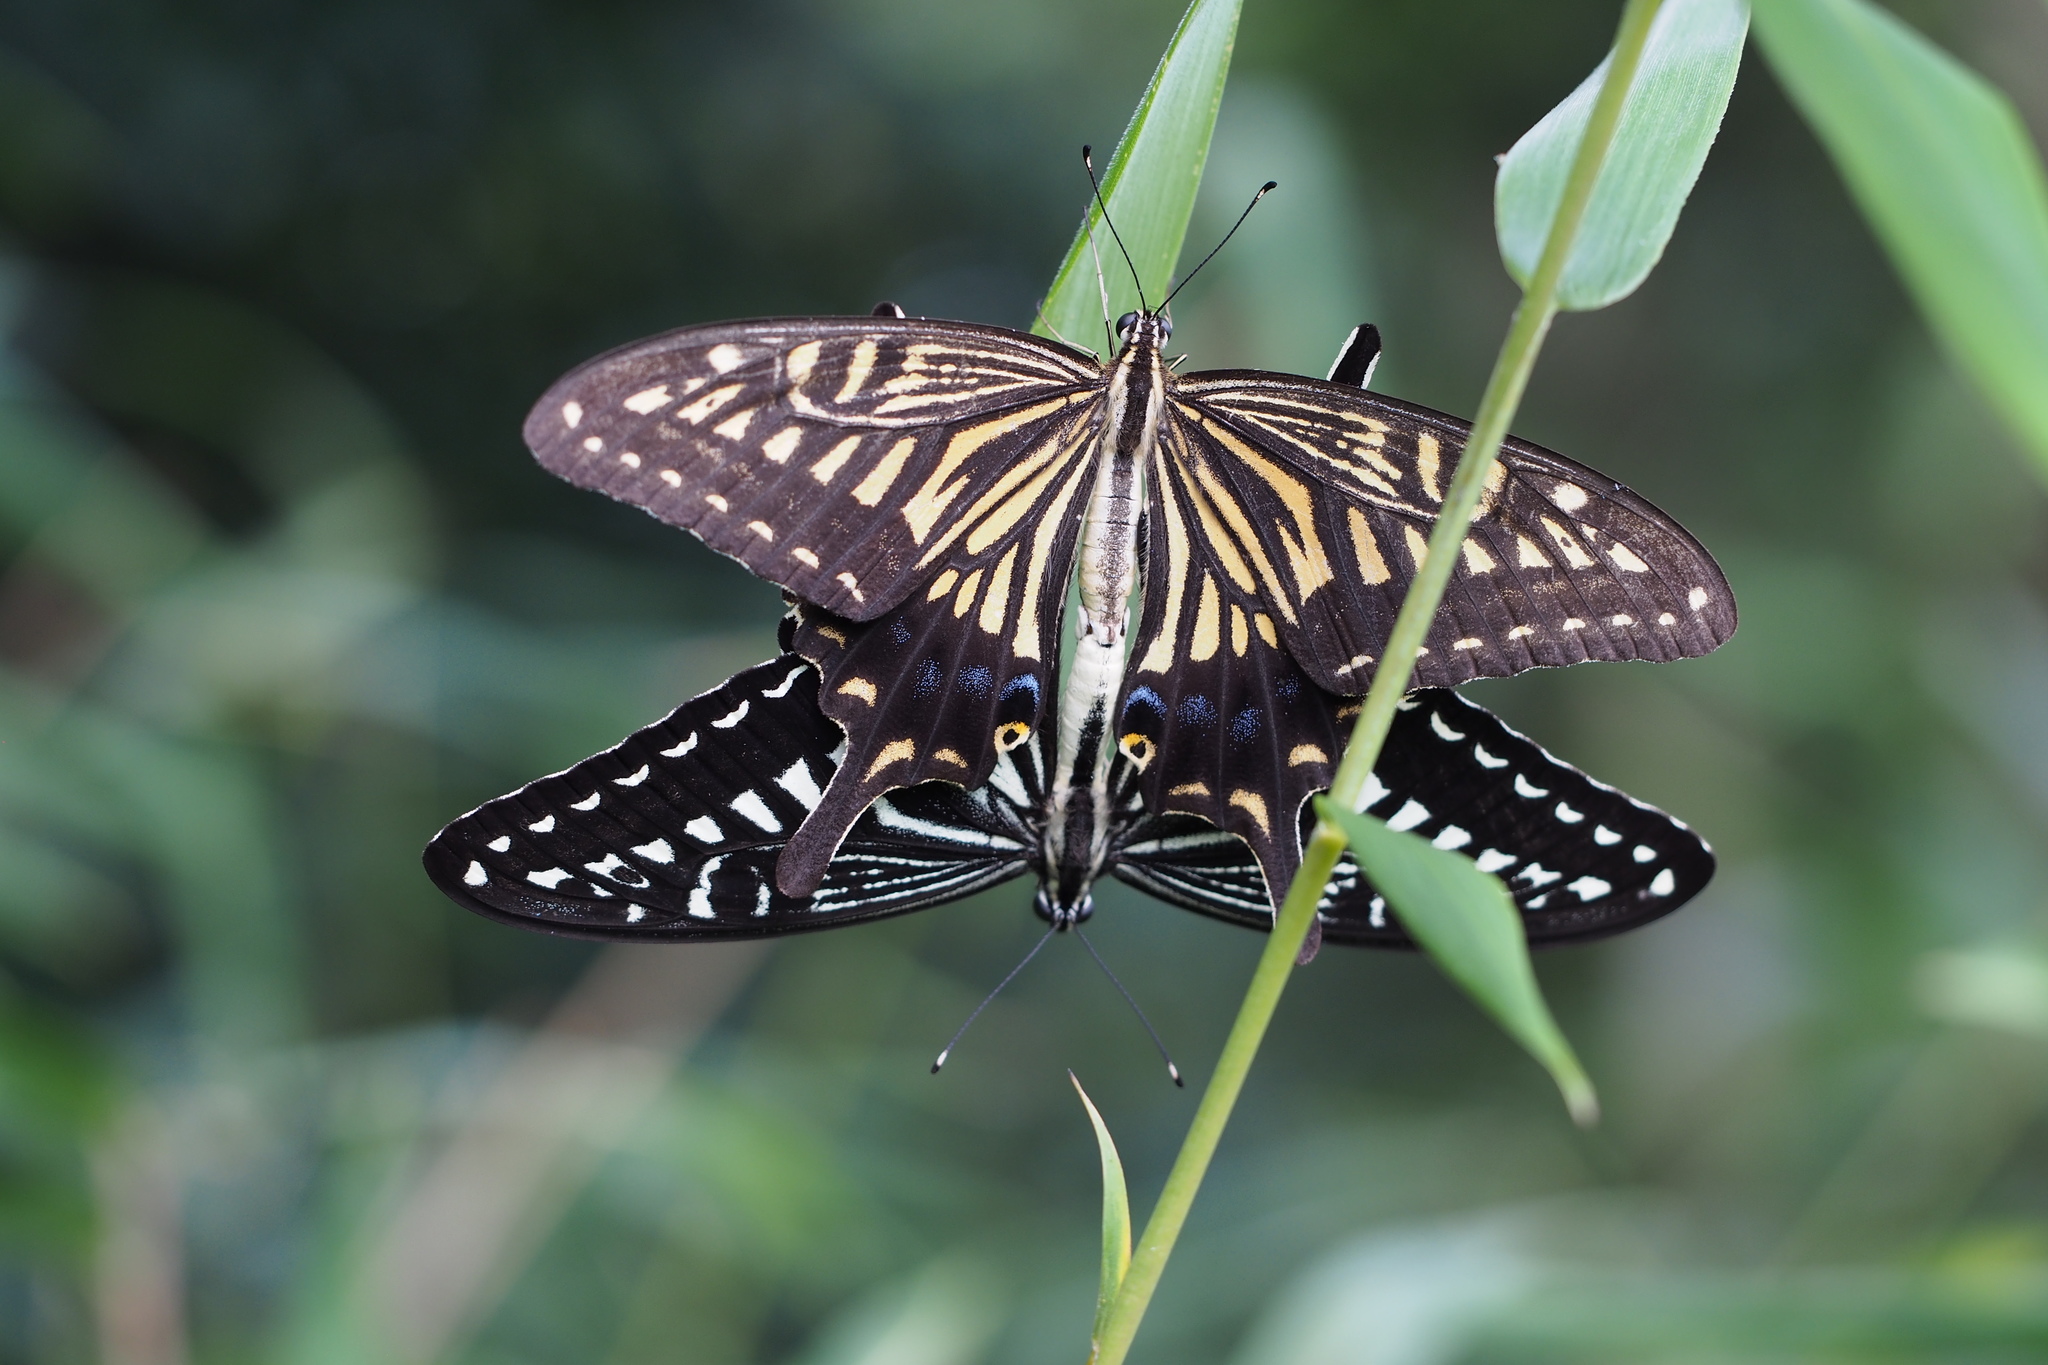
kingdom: Animalia
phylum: Arthropoda
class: Insecta
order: Lepidoptera
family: Papilionidae
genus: Papilio
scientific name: Papilio xuthus
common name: Asian swallowtail
